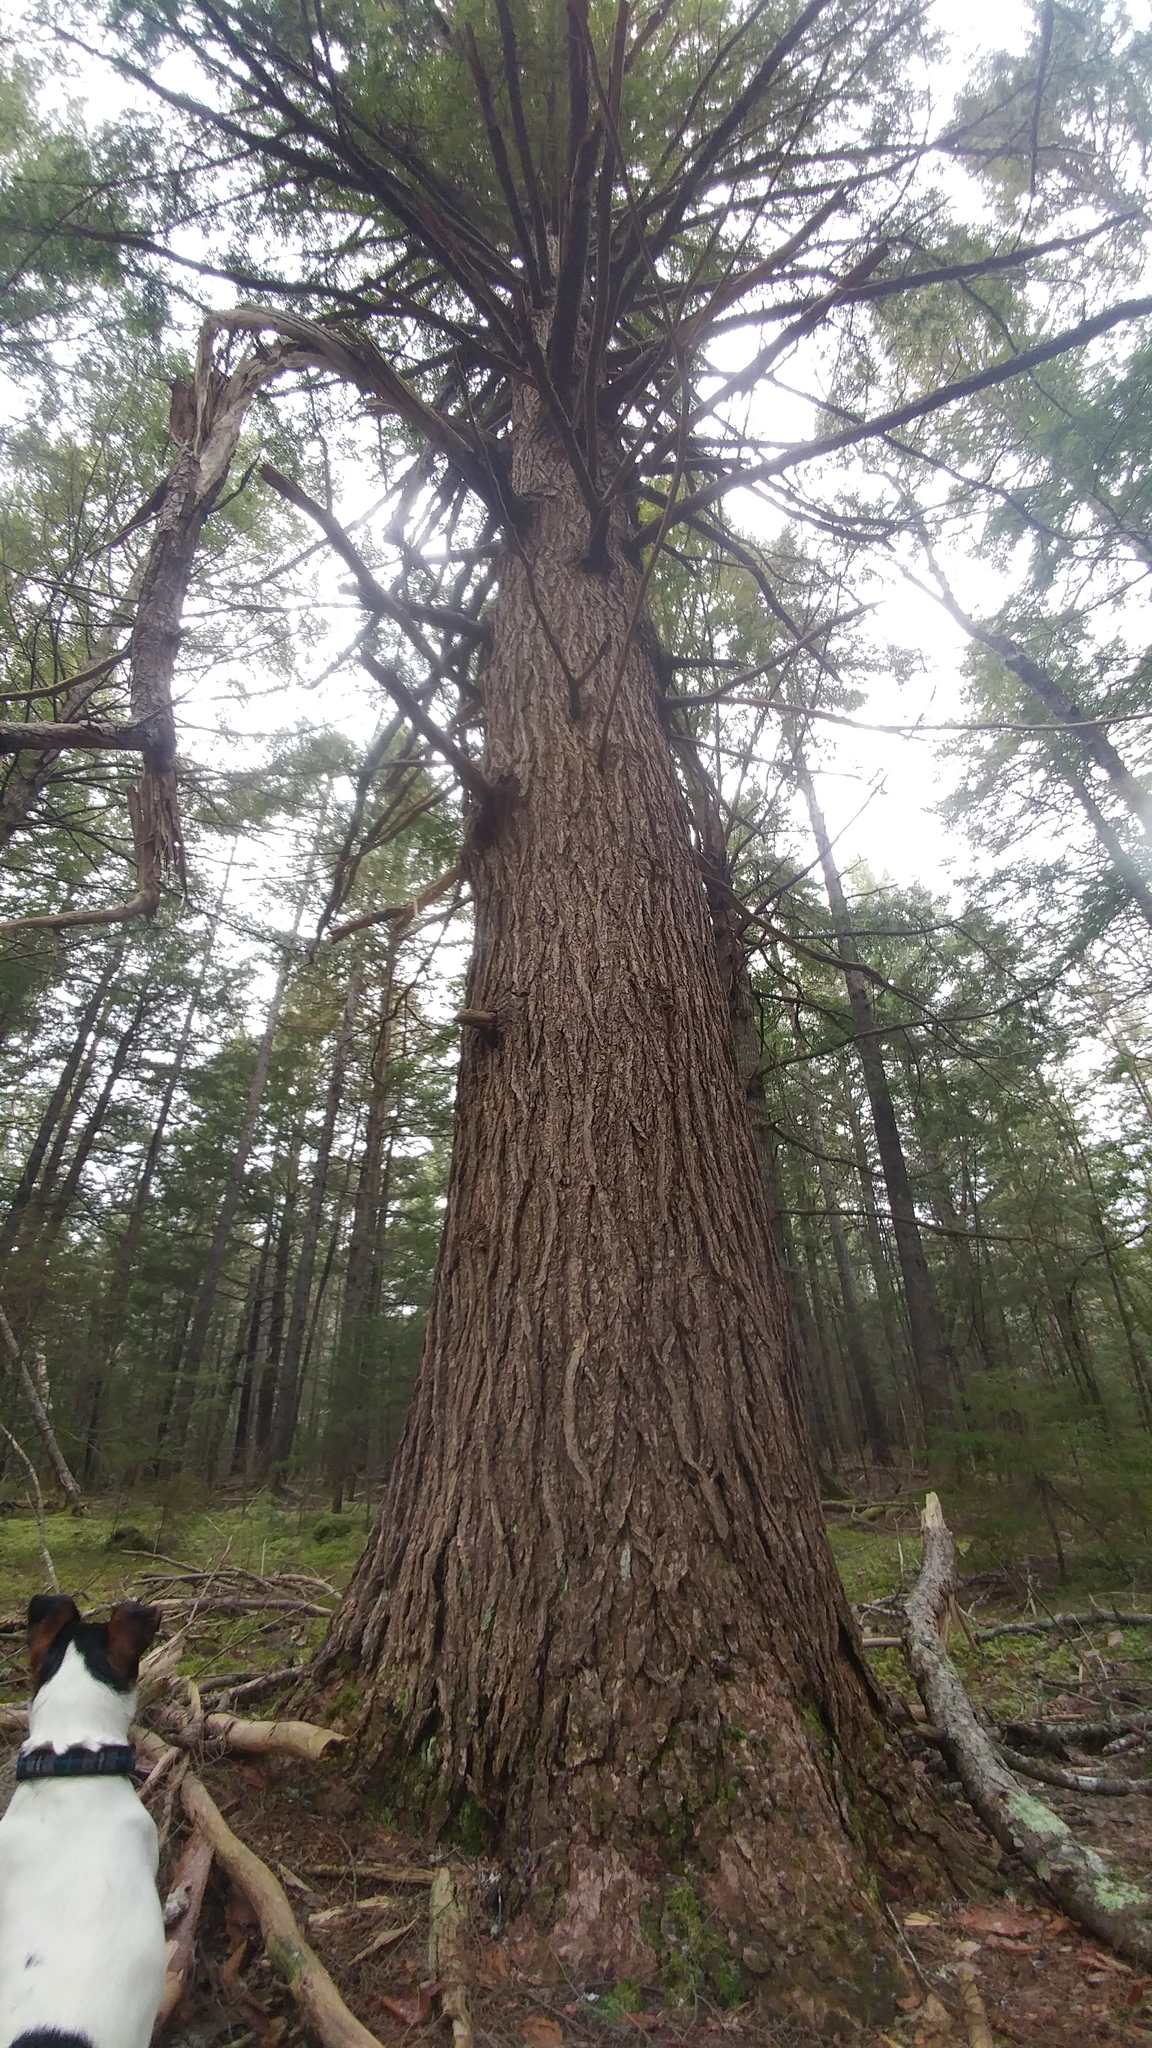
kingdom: Plantae
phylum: Tracheophyta
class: Pinopsida
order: Pinales
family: Pinaceae
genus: Tsuga
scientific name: Tsuga canadensis
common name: Eastern hemlock
